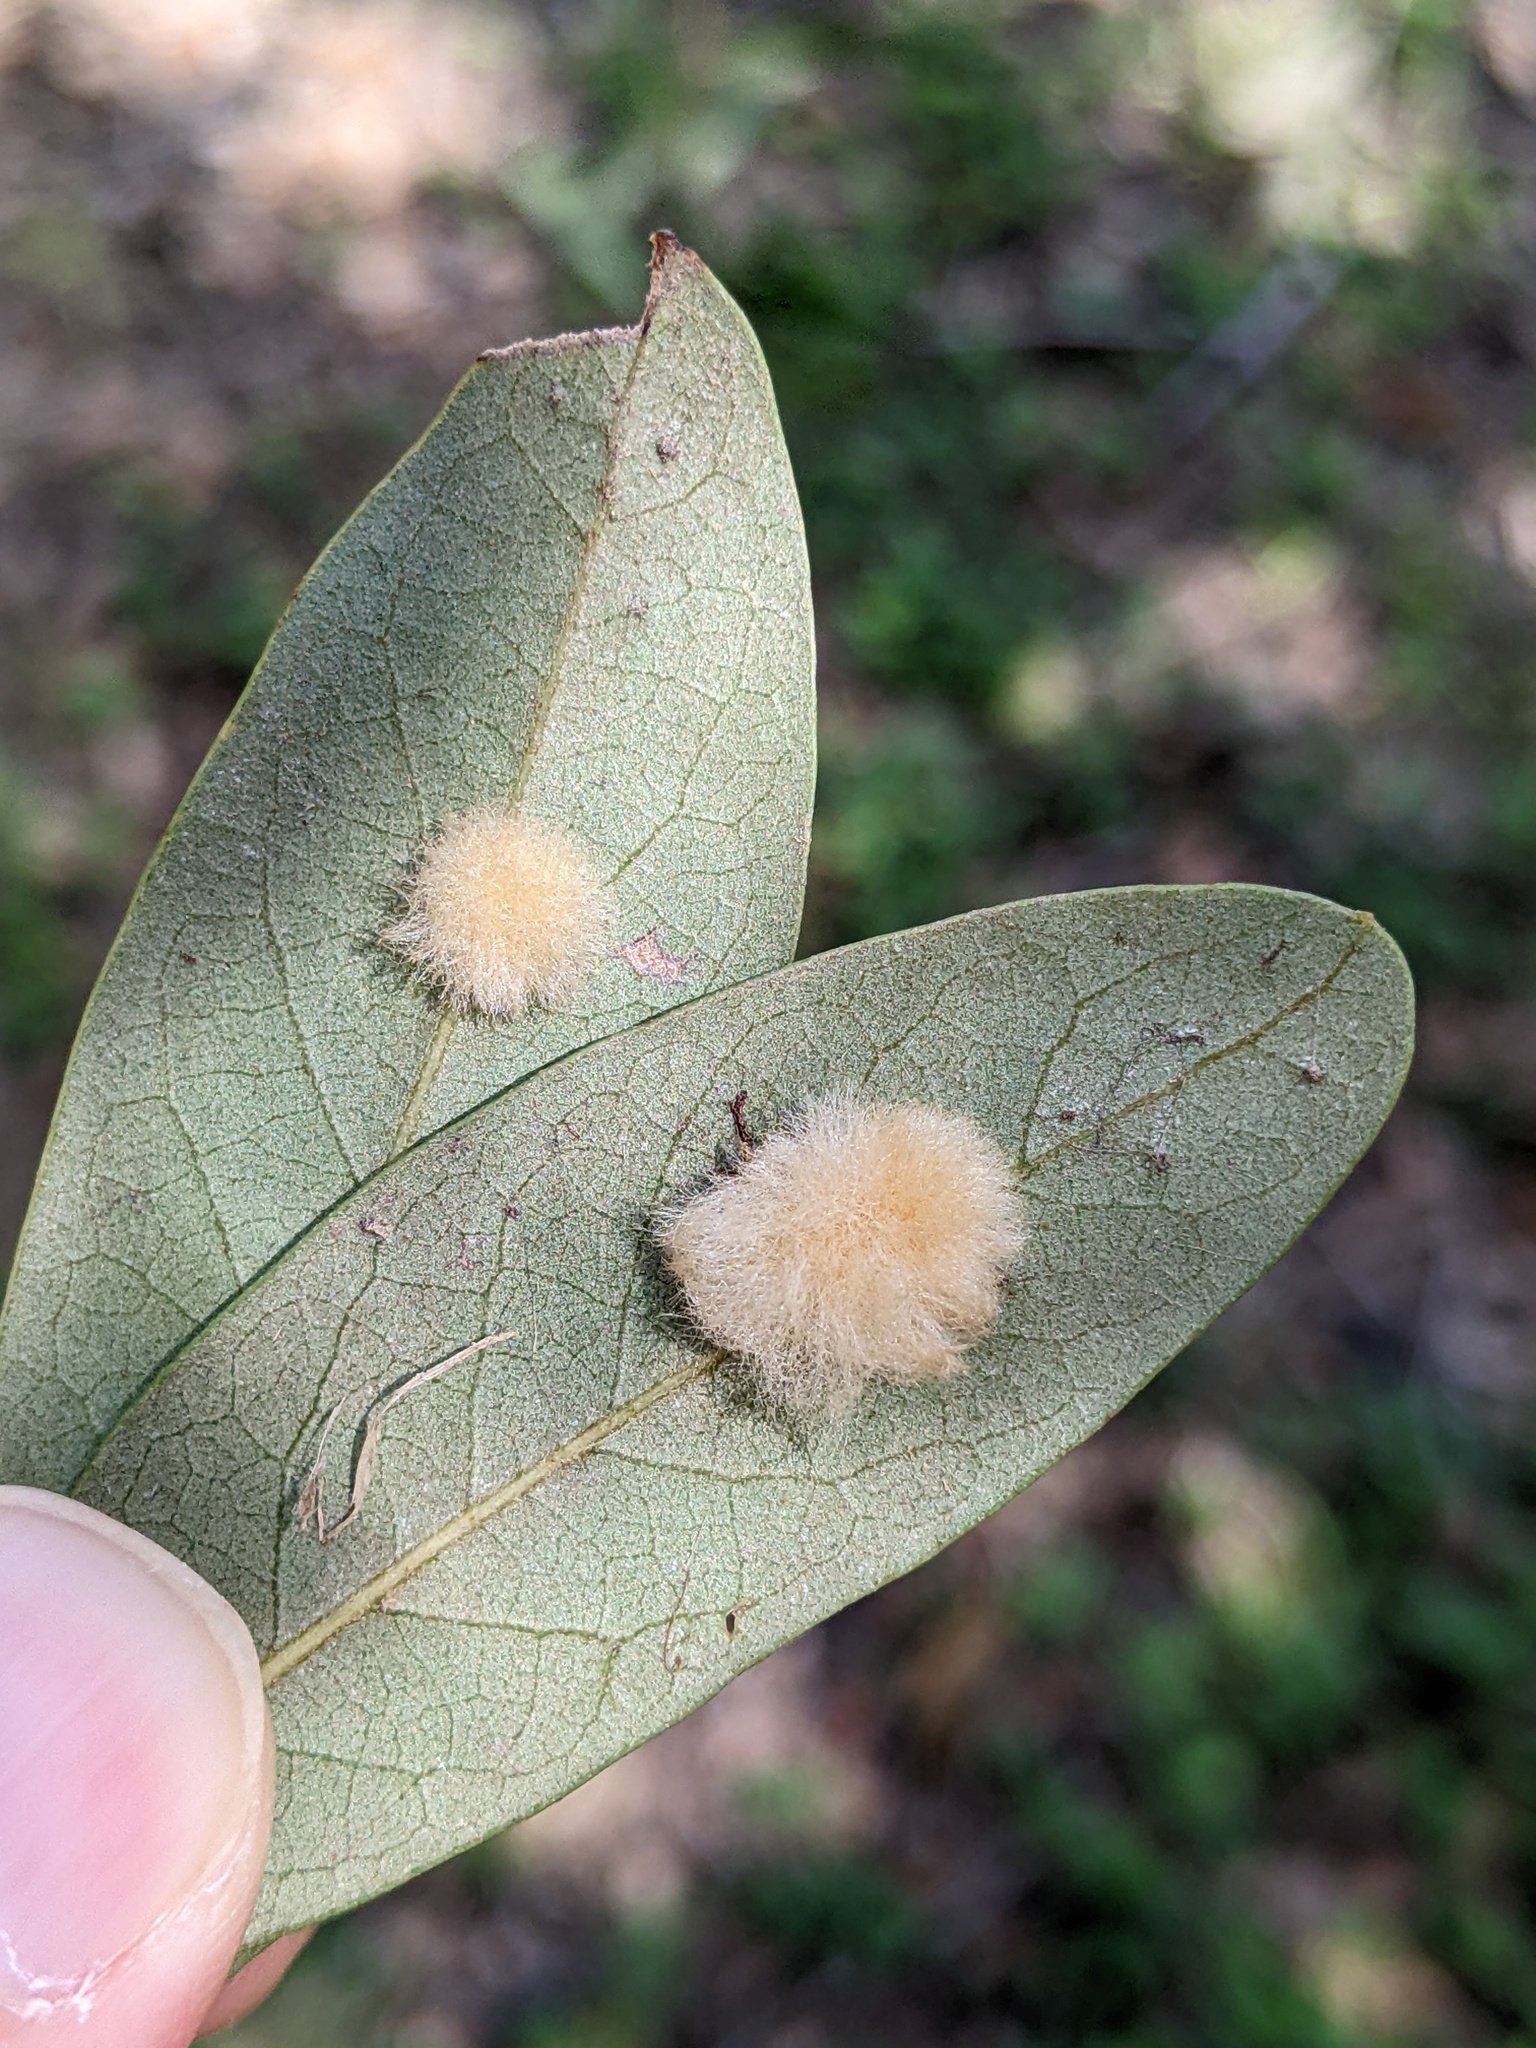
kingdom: Animalia
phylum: Arthropoda
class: Insecta
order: Hymenoptera
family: Cynipidae
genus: Andricus
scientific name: Andricus Druon quercuslanigerum
